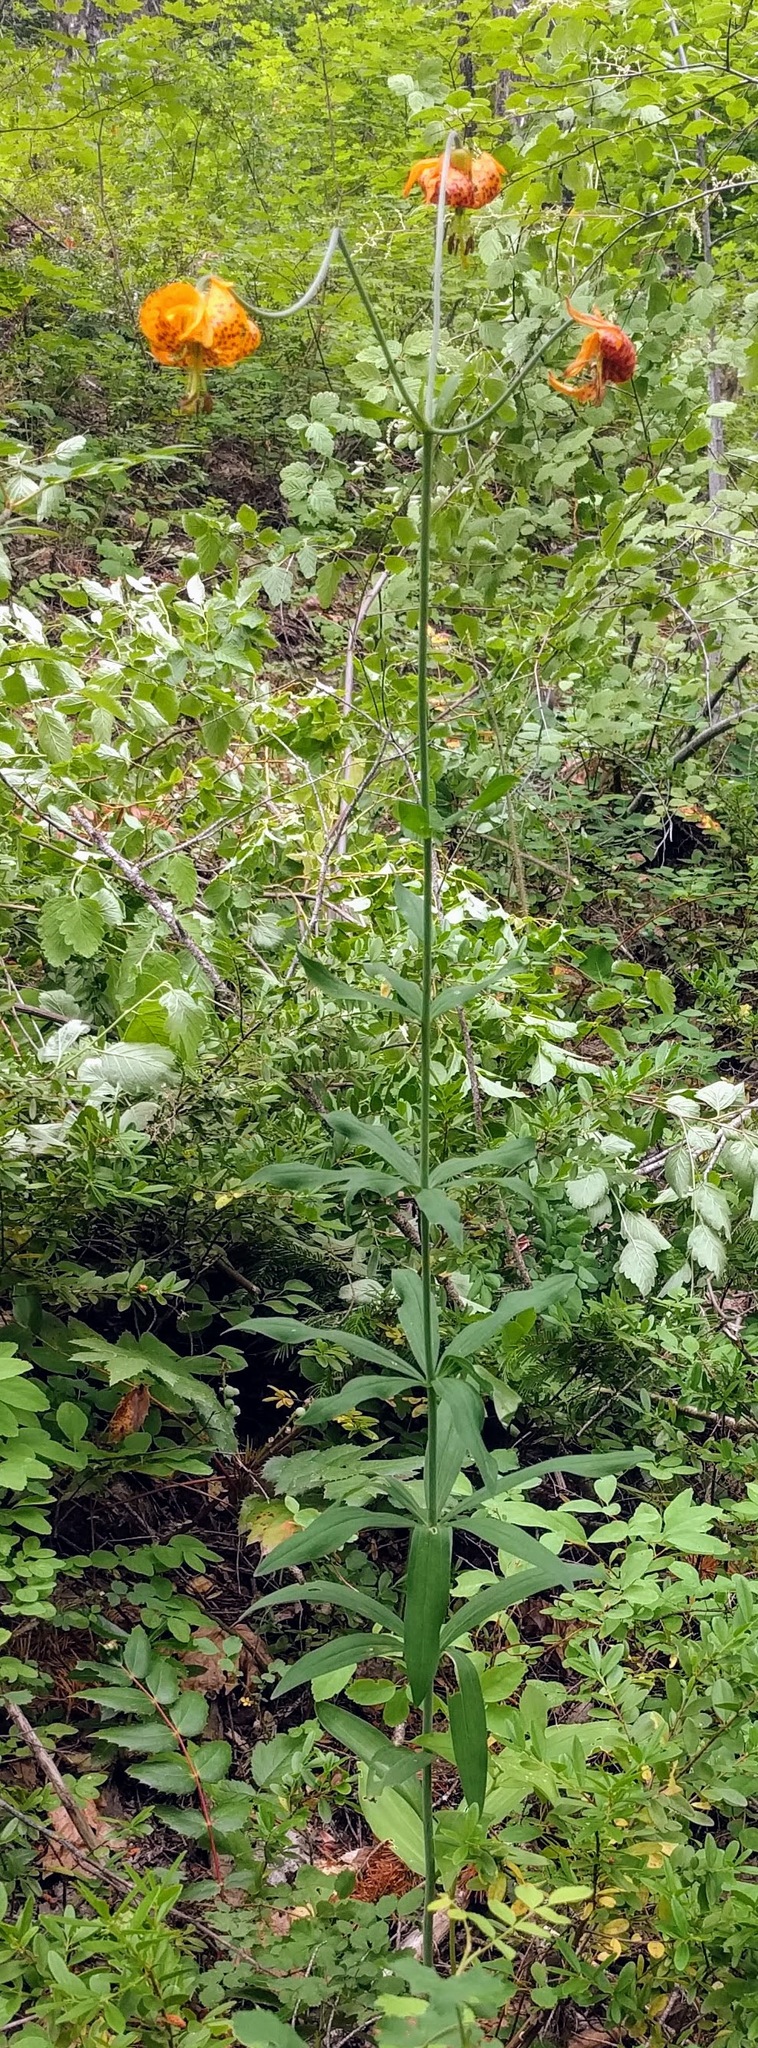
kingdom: Plantae
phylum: Tracheophyta
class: Liliopsida
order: Liliales
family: Liliaceae
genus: Lilium
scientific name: Lilium columbianum
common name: Columbia lily
